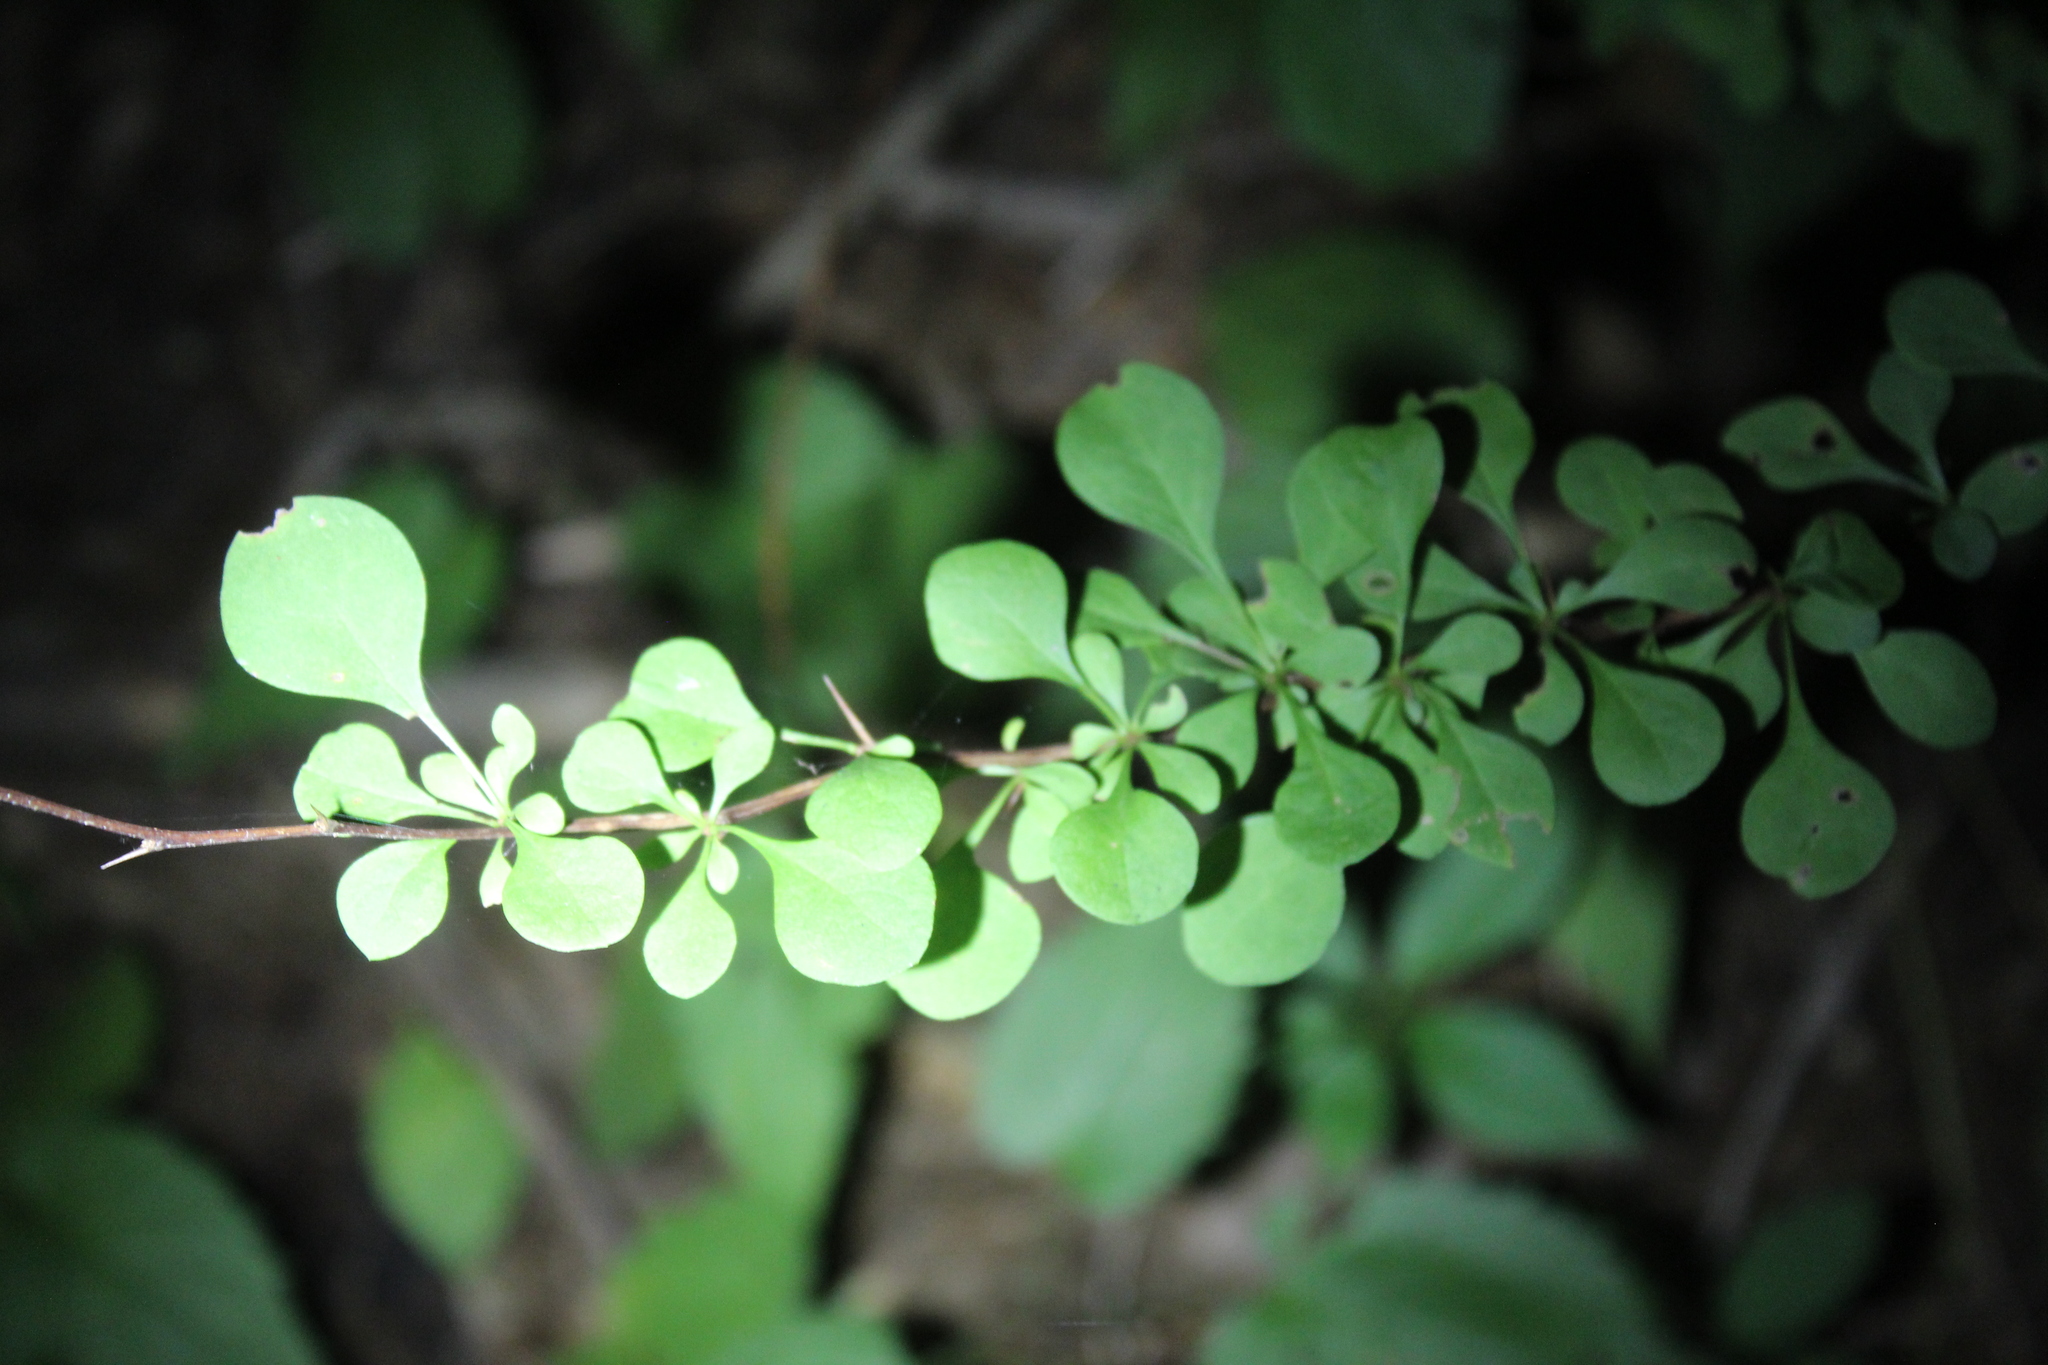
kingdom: Plantae
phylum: Tracheophyta
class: Magnoliopsida
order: Ranunculales
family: Berberidaceae
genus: Berberis
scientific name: Berberis thunbergii
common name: Japanese barberry
